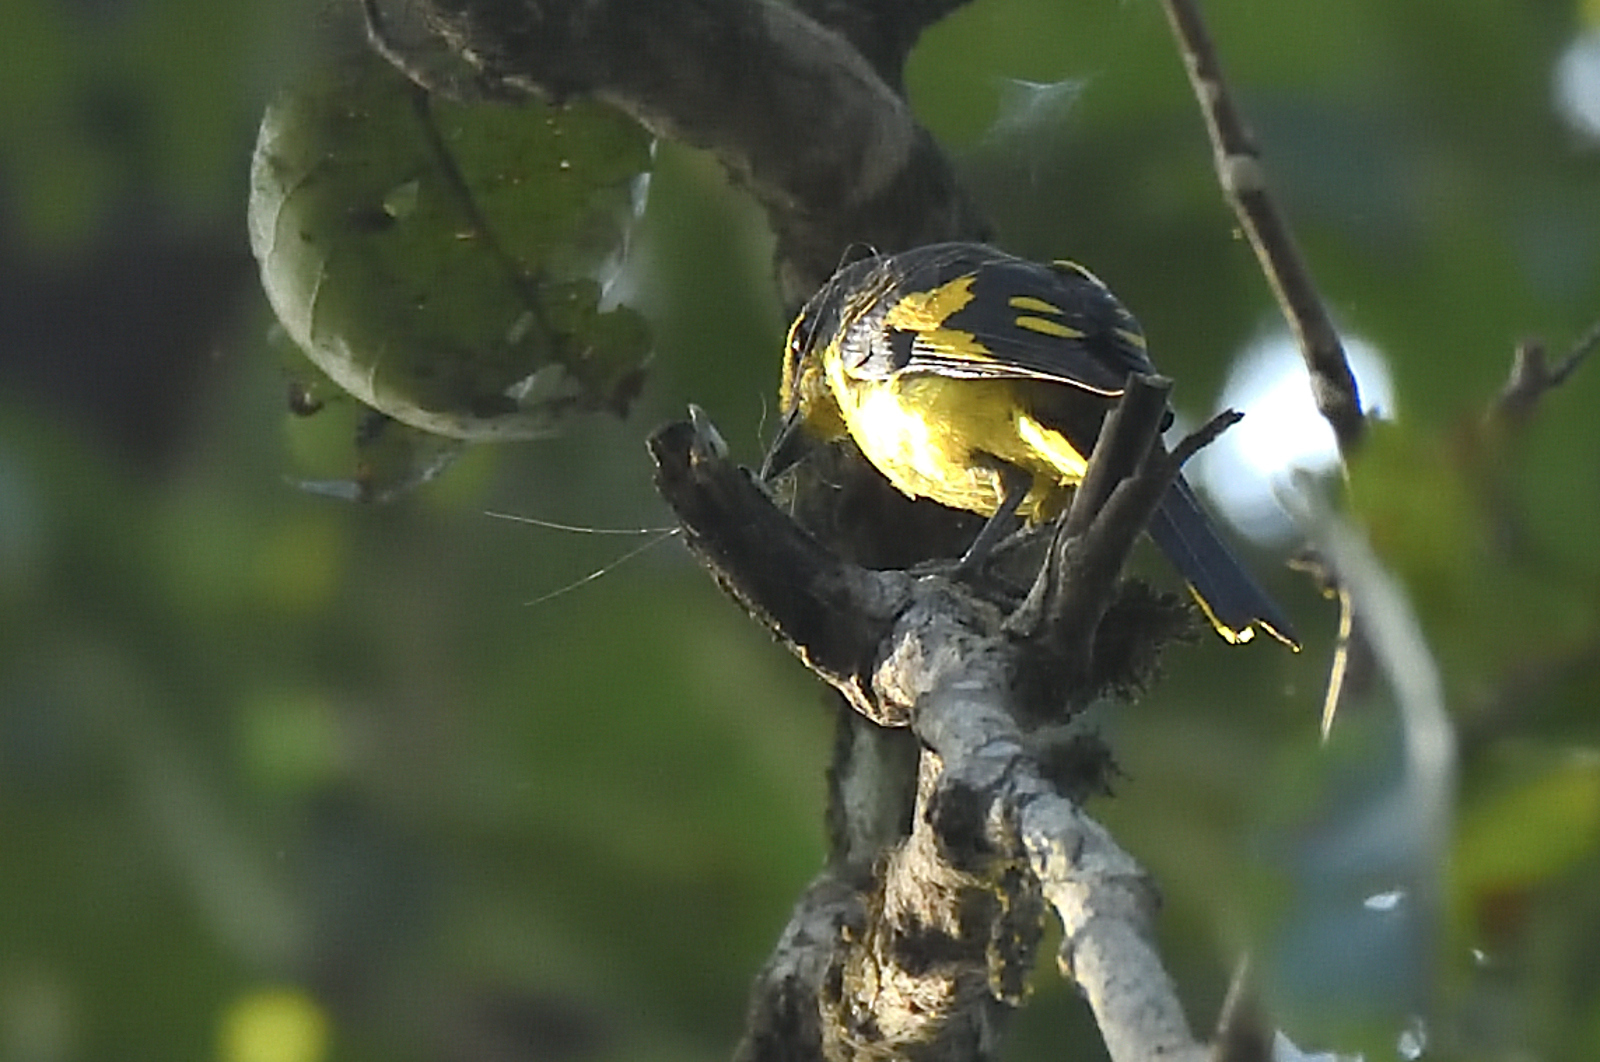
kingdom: Animalia
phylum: Chordata
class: Aves
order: Passeriformes
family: Campephagidae
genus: Pericrocotus
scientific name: Pericrocotus flammeus
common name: Orange minivet
